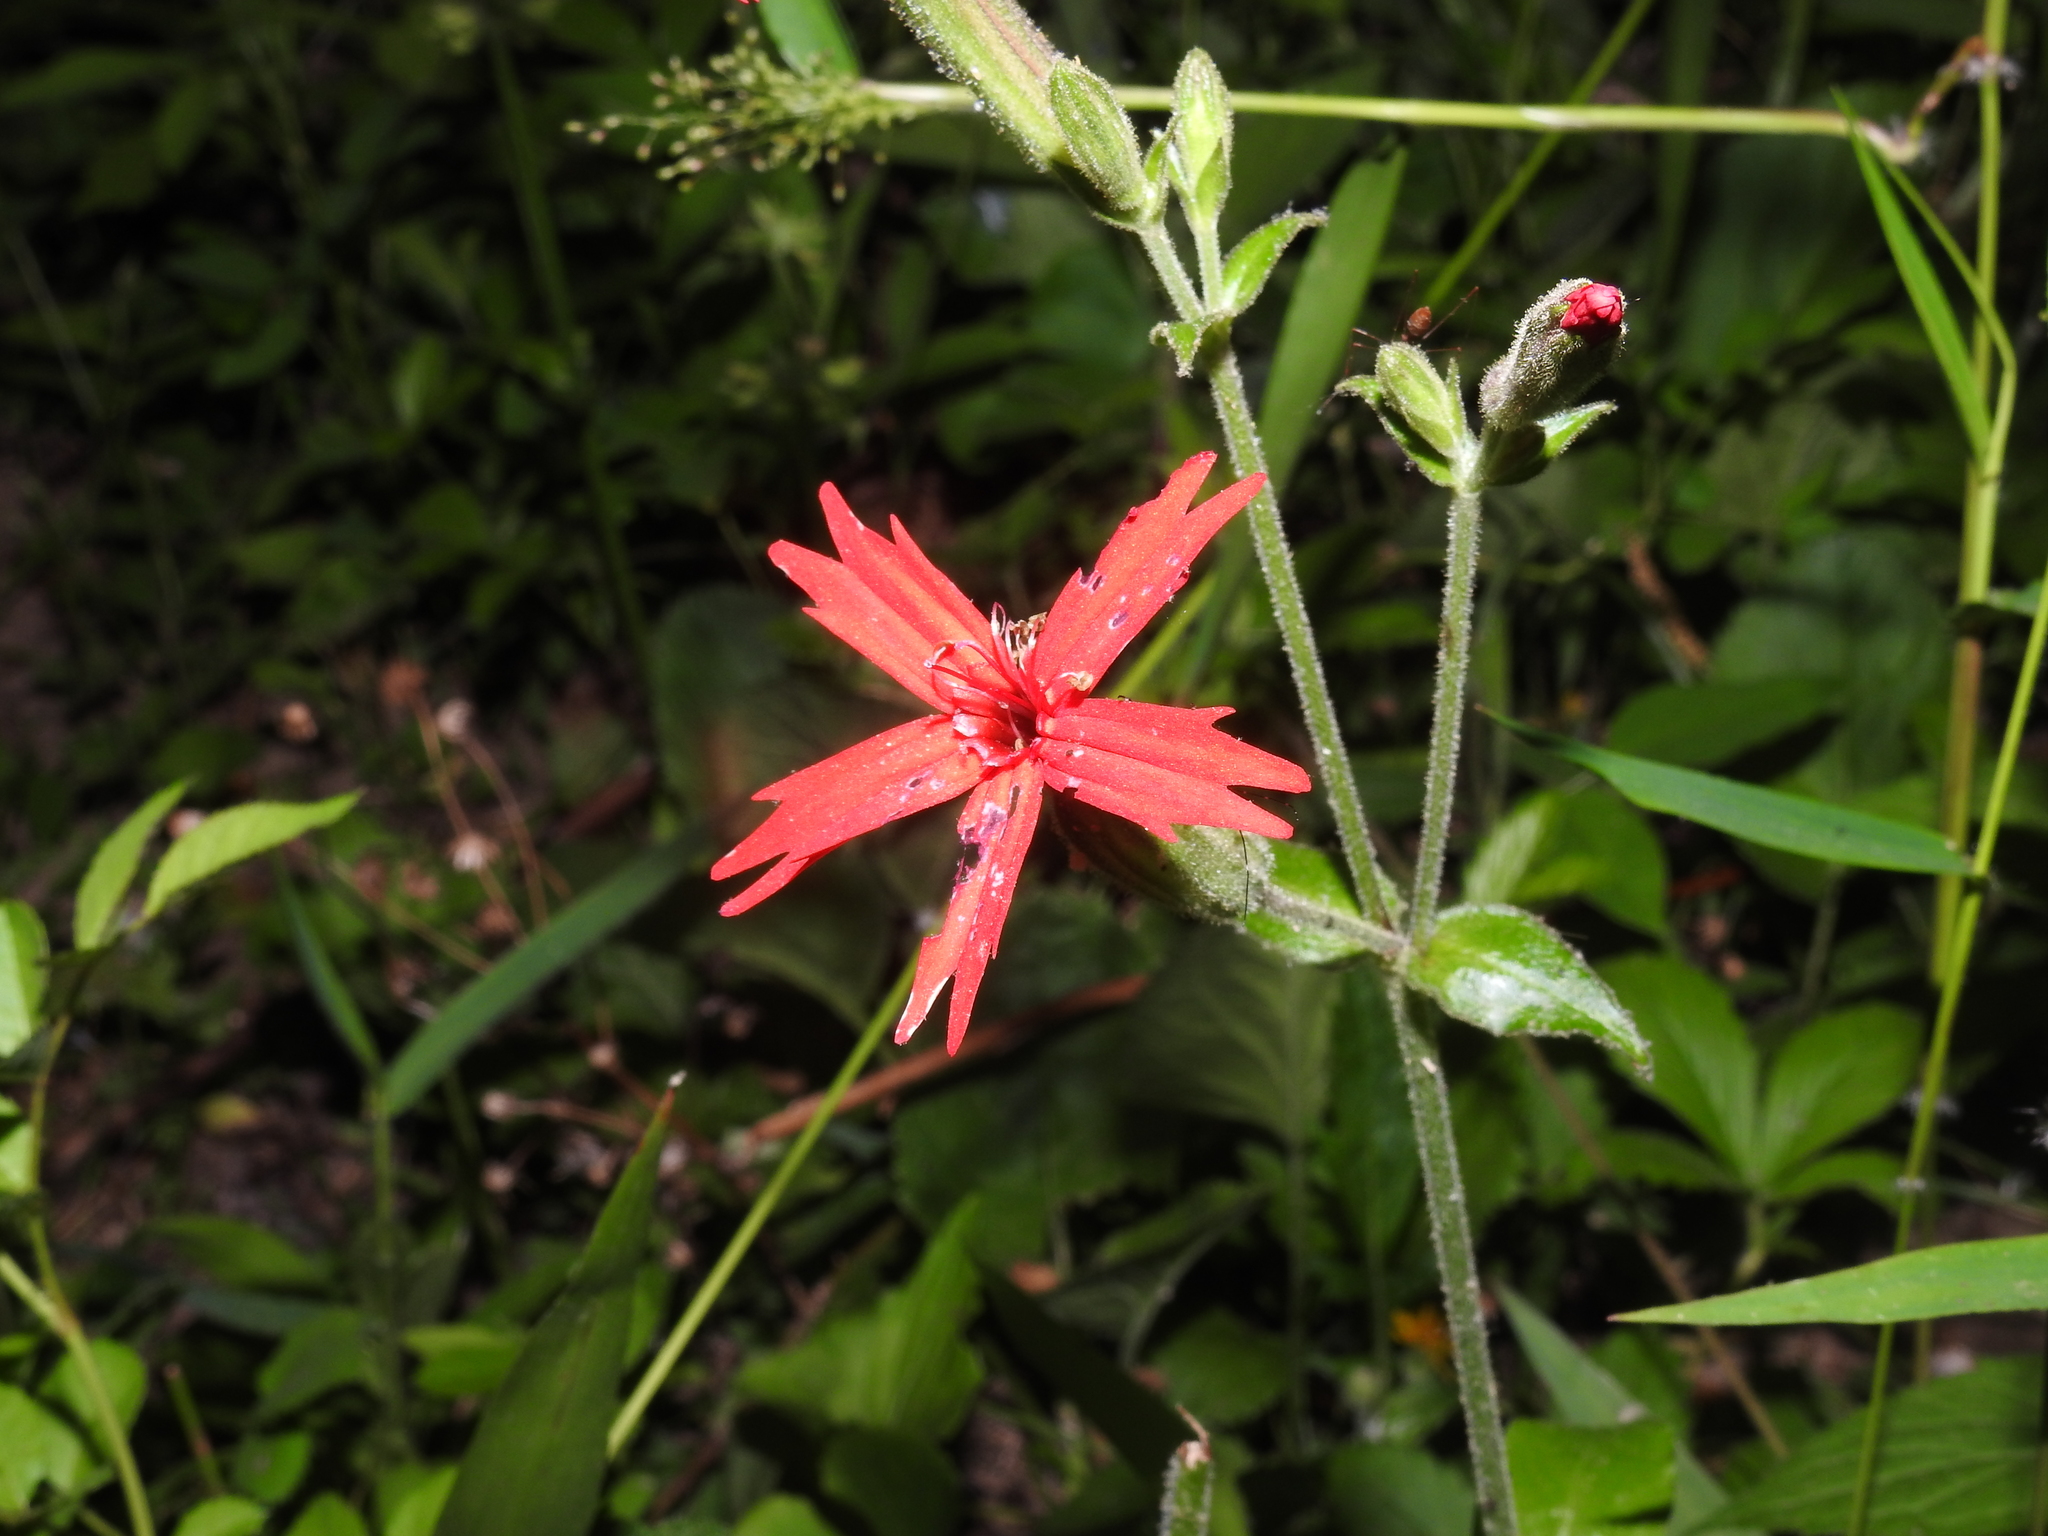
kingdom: Plantae
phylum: Tracheophyta
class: Magnoliopsida
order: Caryophyllales
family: Caryophyllaceae
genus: Silene
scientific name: Silene virginica
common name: Fire-pink
